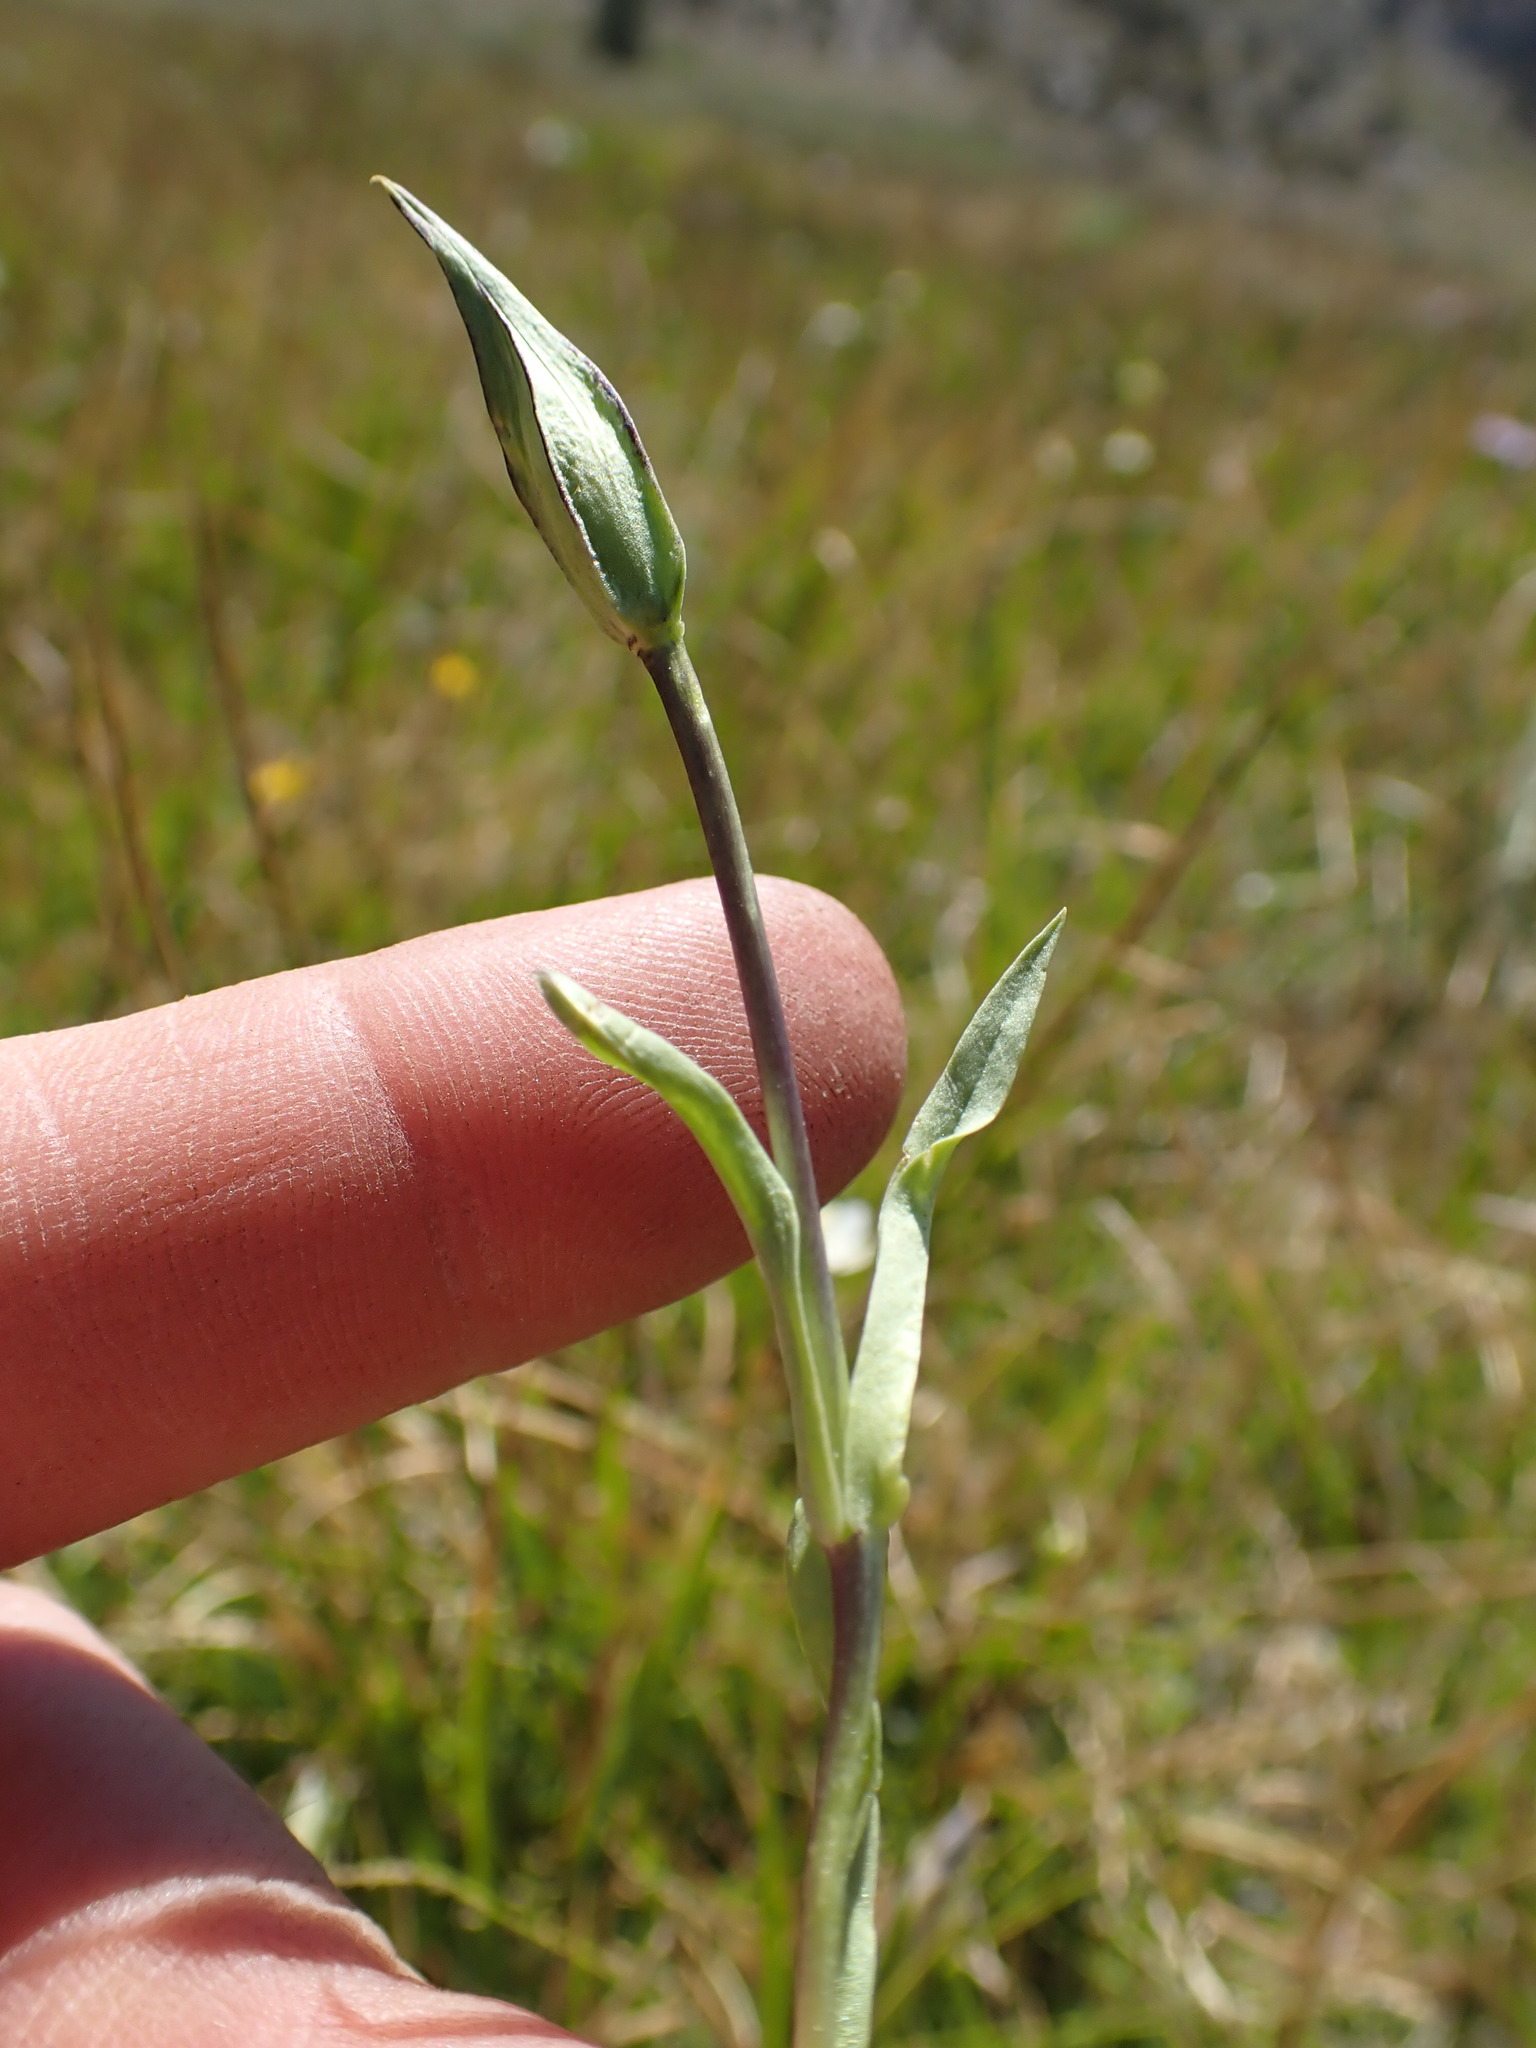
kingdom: Plantae
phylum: Tracheophyta
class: Magnoliopsida
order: Gentianales
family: Gentianaceae
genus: Gentianopsis
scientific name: Gentianopsis holopetala
